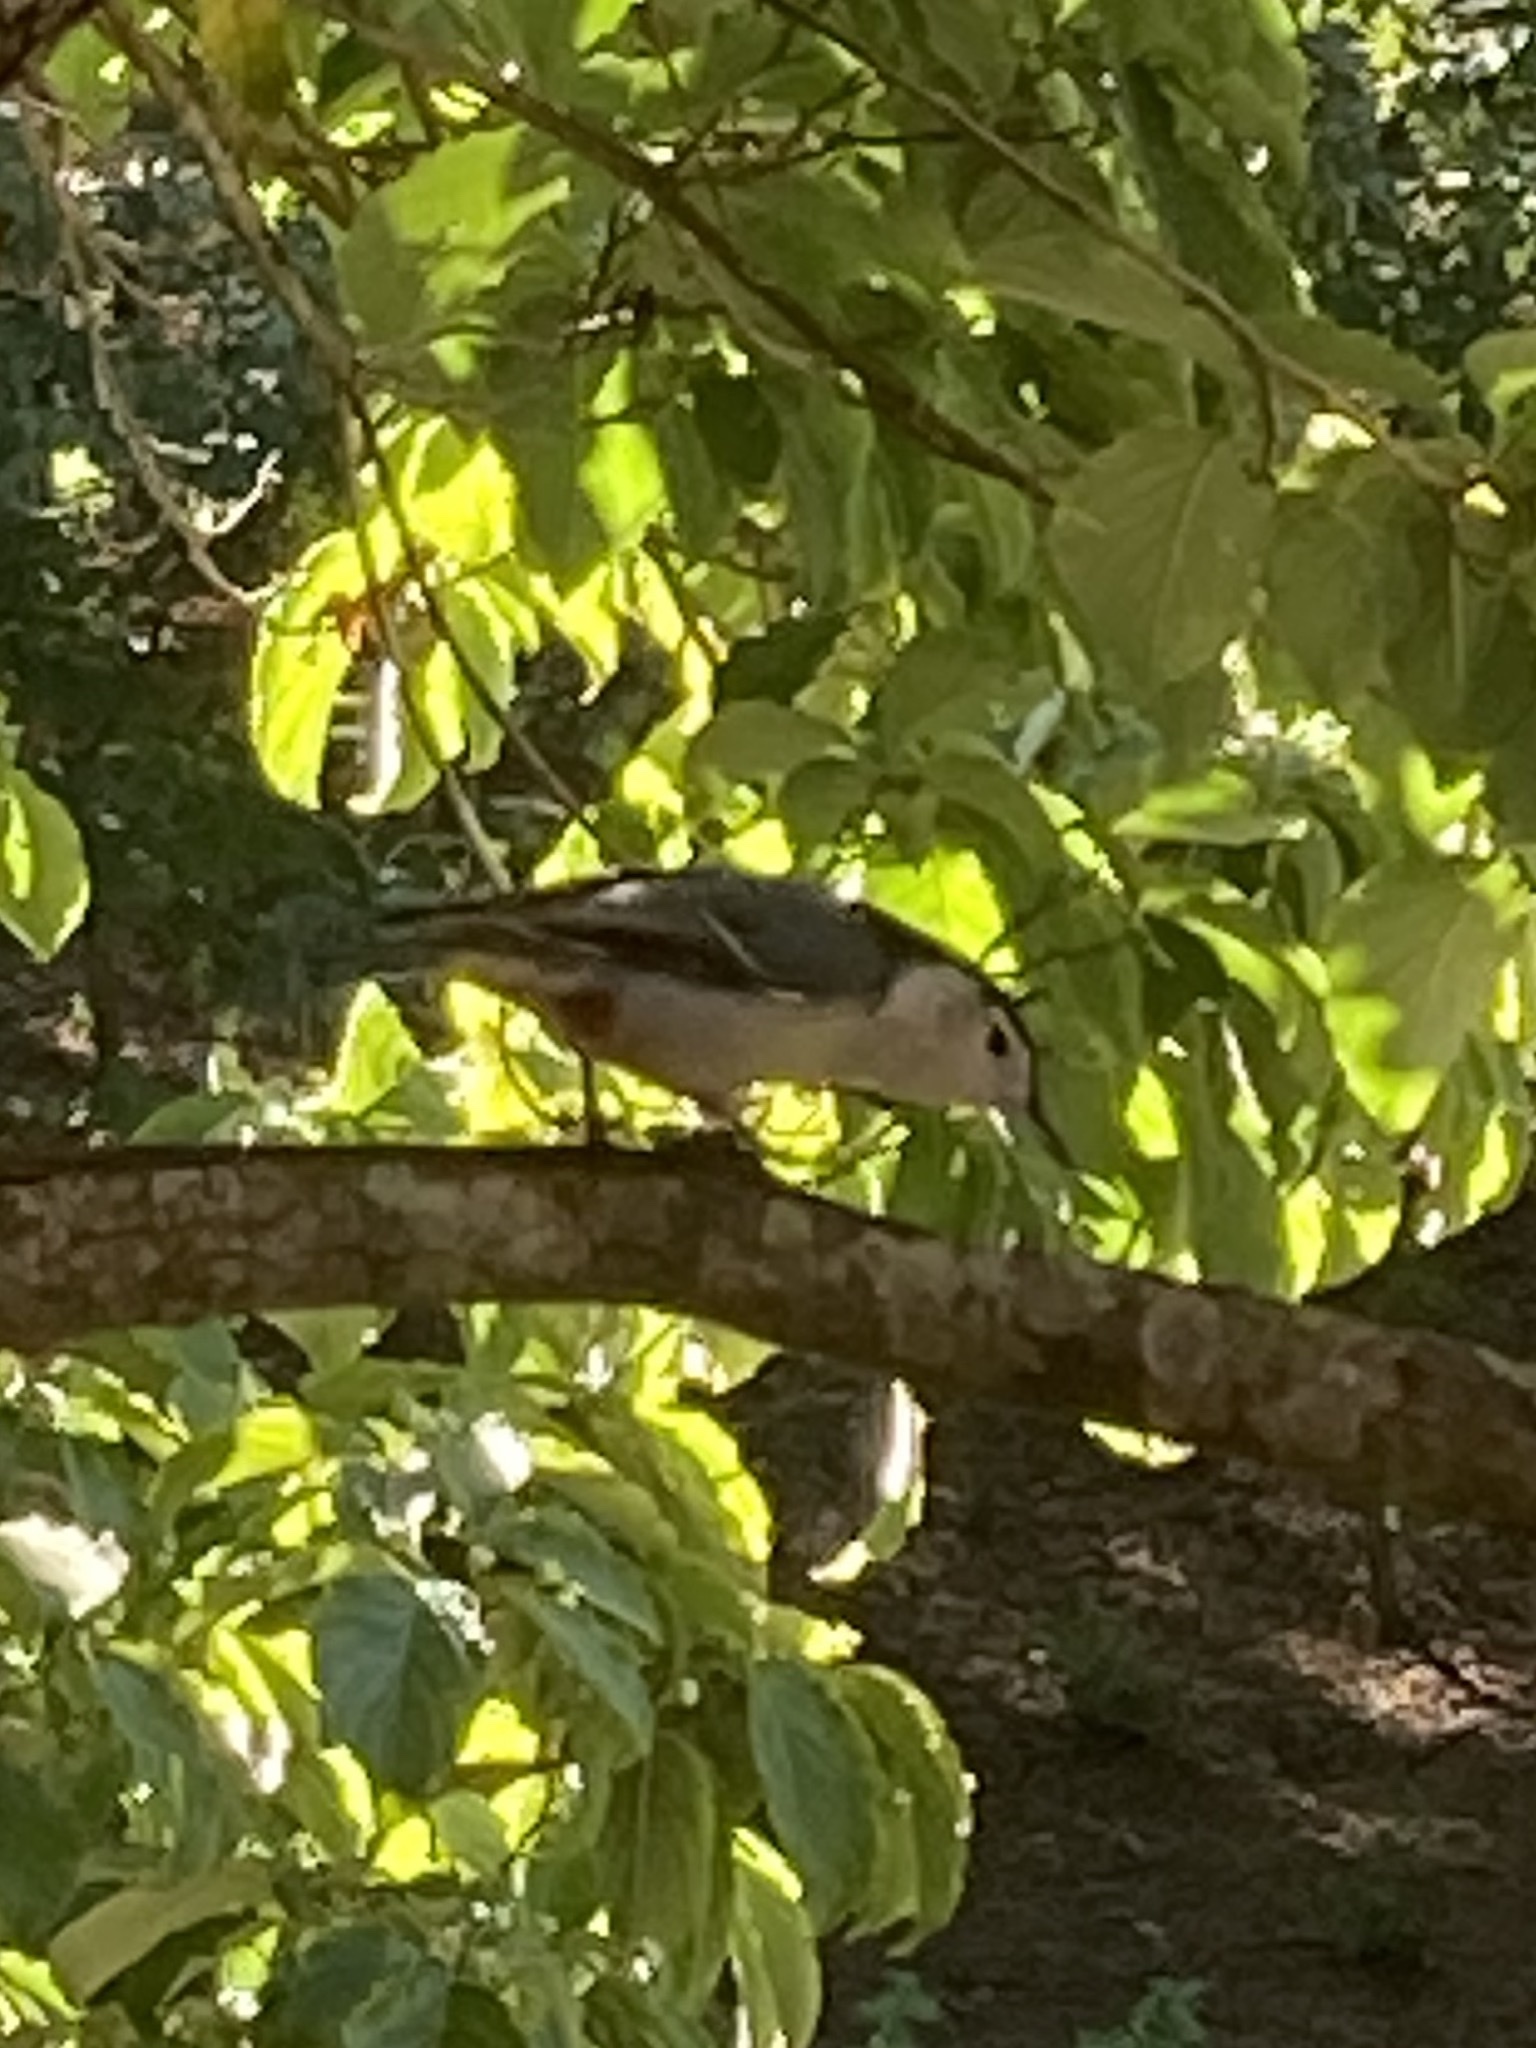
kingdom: Animalia
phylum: Chordata
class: Aves
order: Passeriformes
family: Sittidae
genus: Sitta
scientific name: Sitta carolinensis
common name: White-breasted nuthatch
